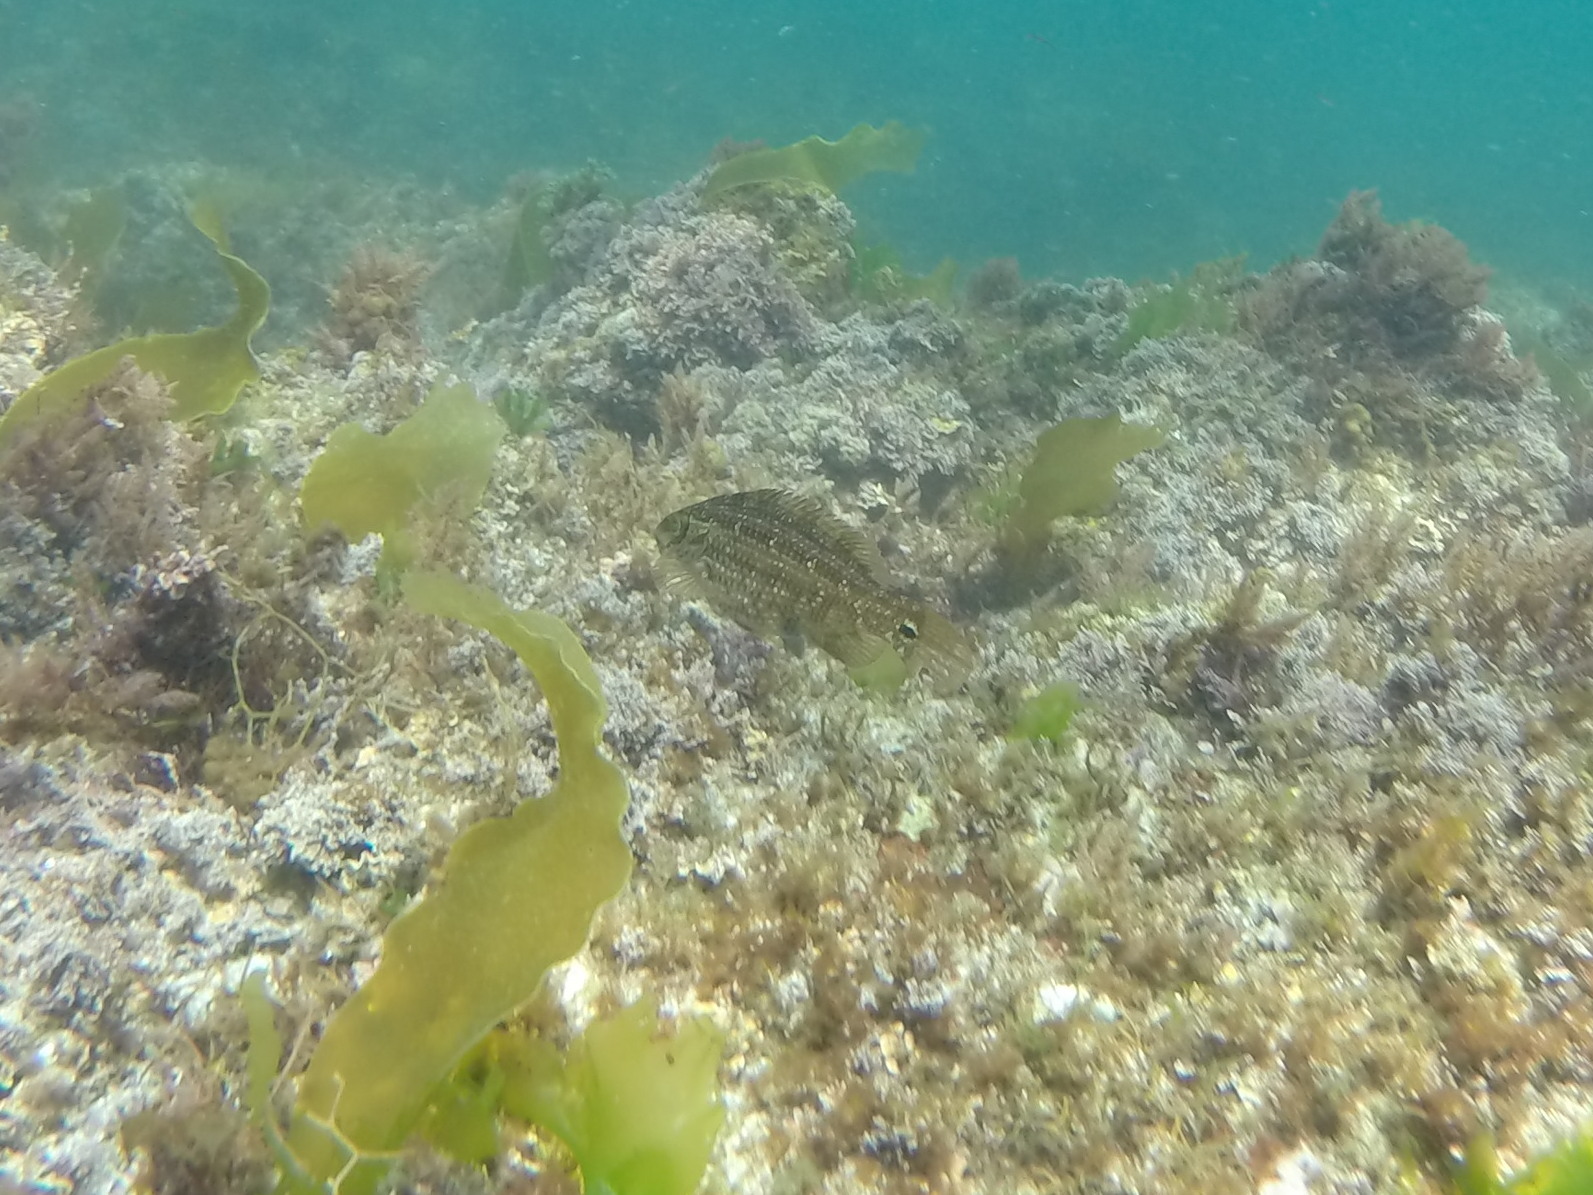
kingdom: Animalia
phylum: Chordata
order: Perciformes
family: Labridae
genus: Symphodus
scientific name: Symphodus melops
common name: Corkwing
